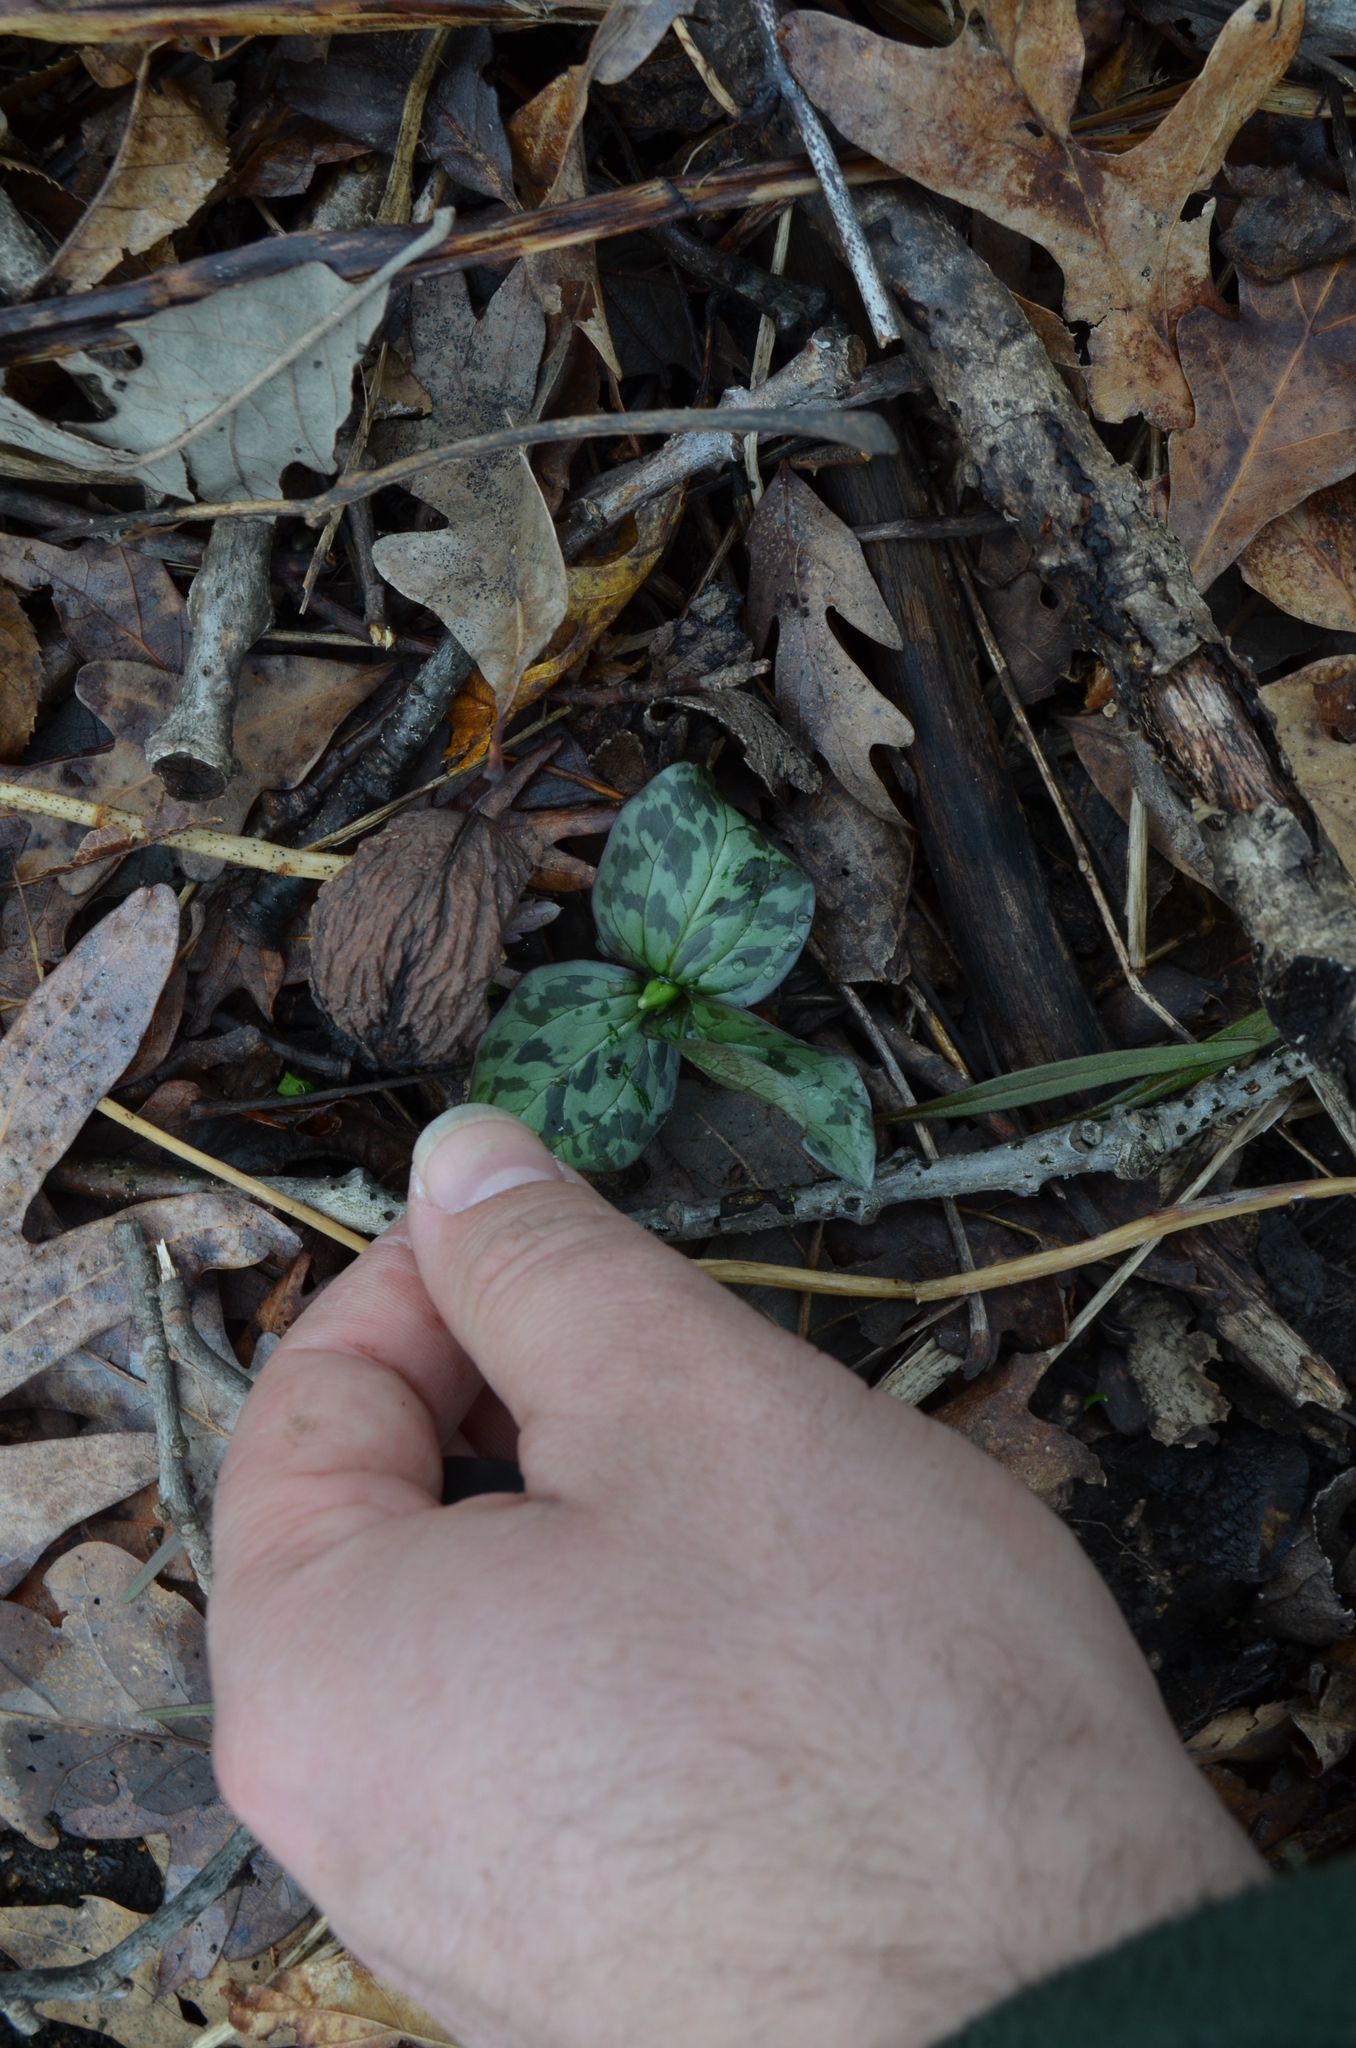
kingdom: Plantae
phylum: Tracheophyta
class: Liliopsida
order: Liliales
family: Melanthiaceae
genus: Trillium
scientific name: Trillium recurvatum
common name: Bloody butcher
